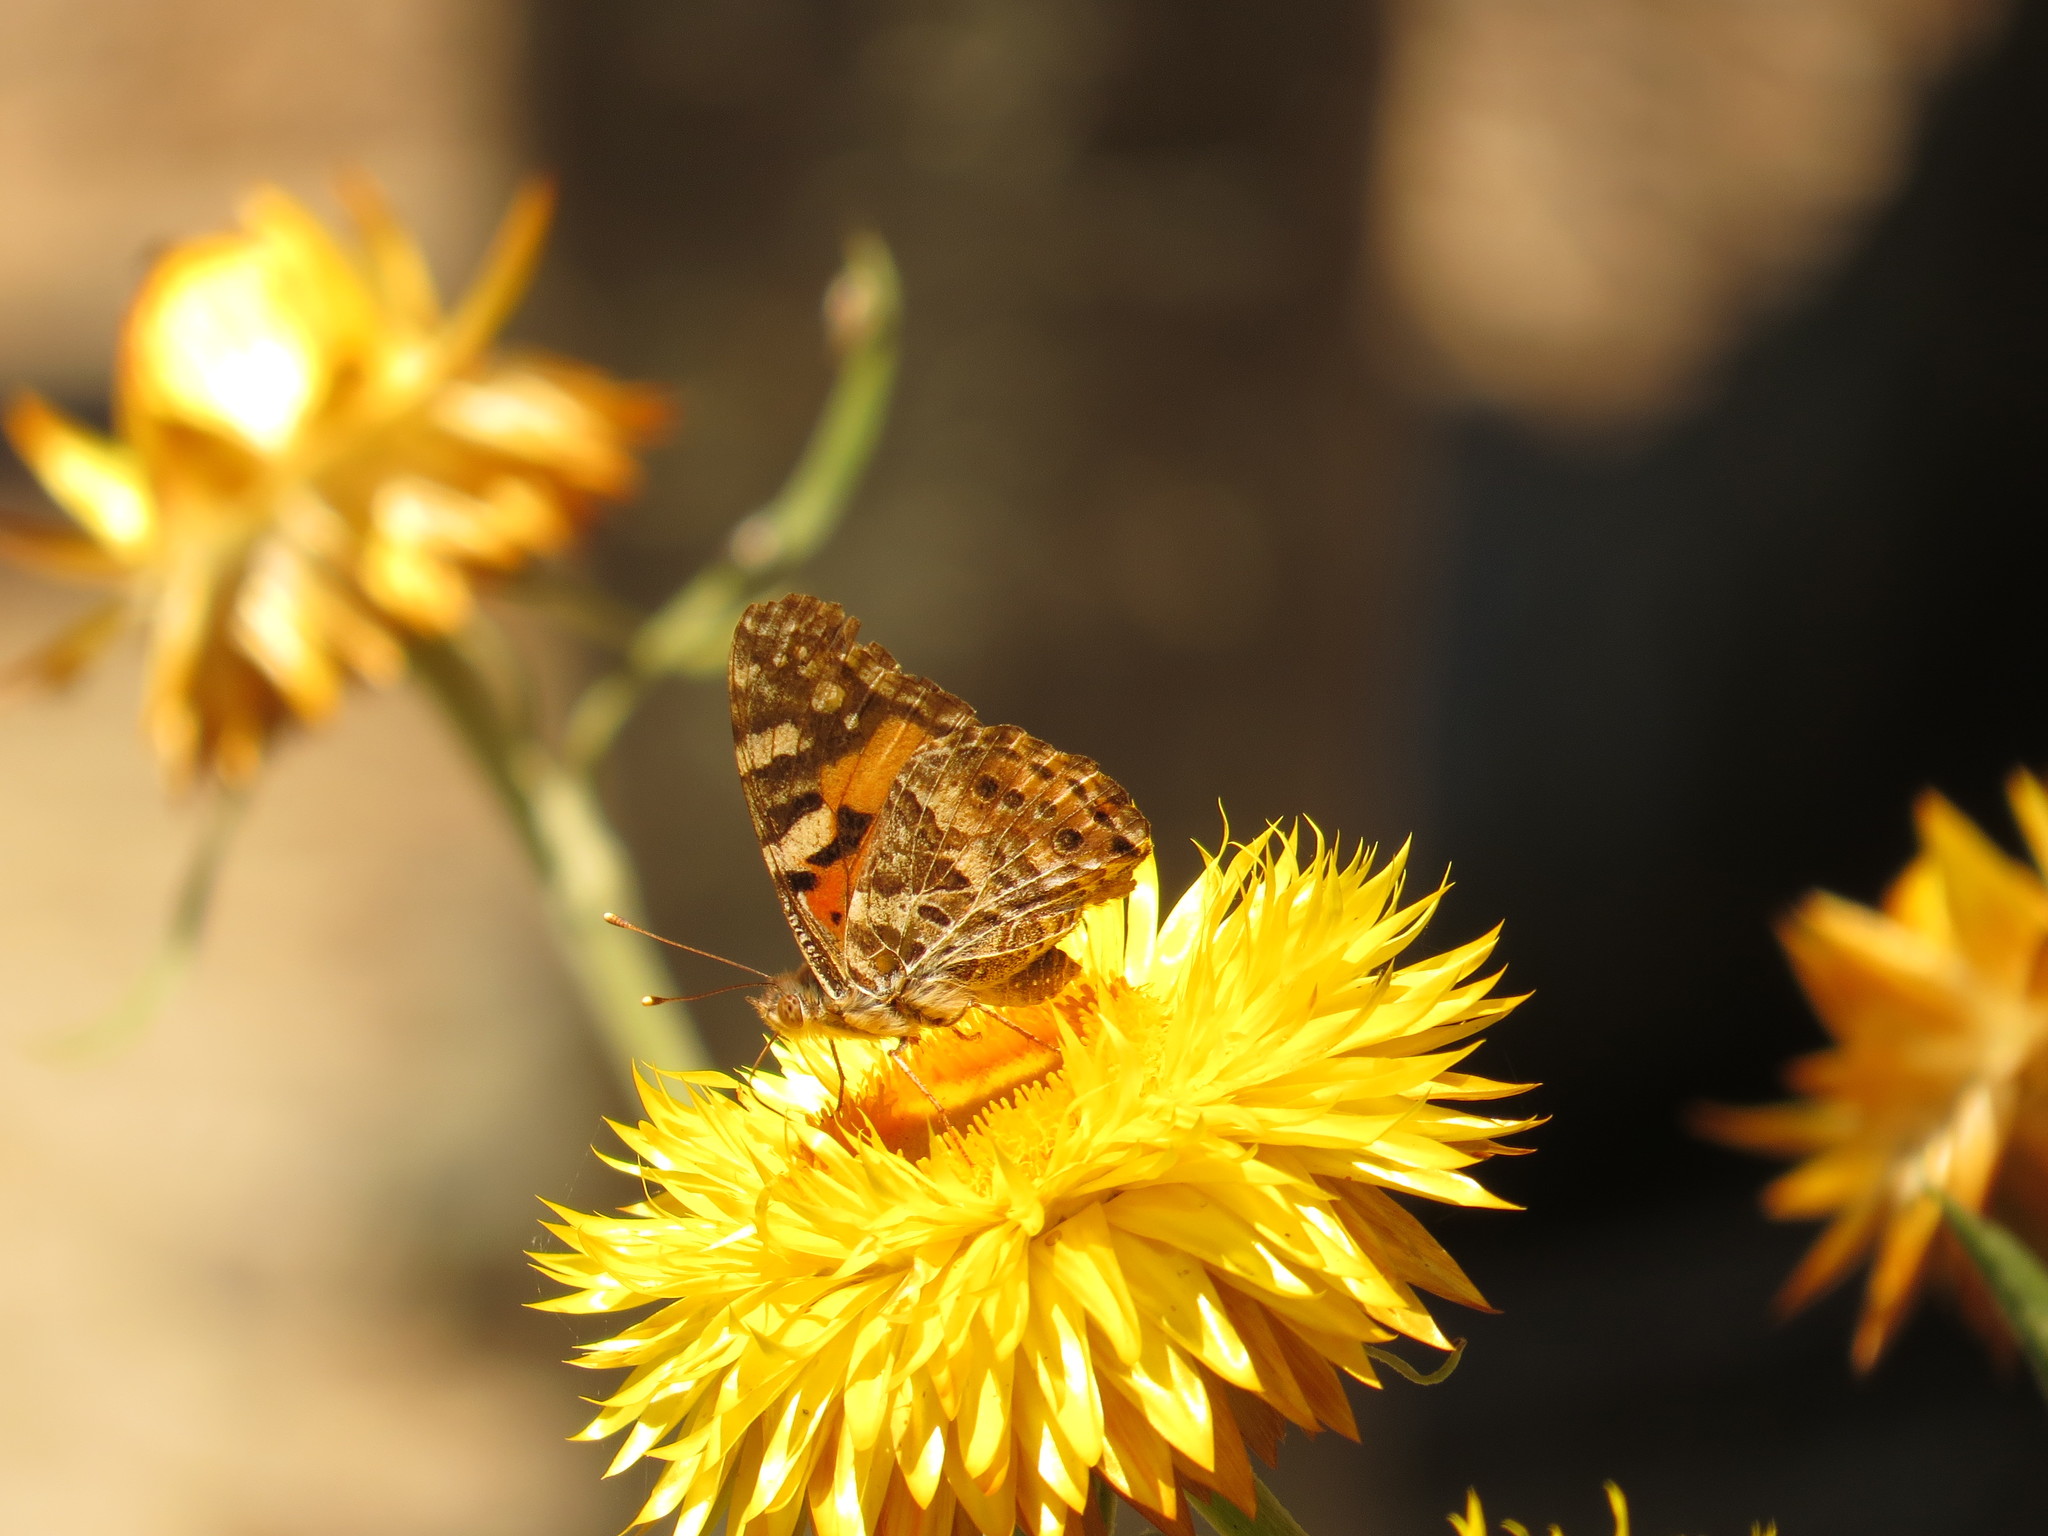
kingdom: Animalia
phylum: Arthropoda
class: Insecta
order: Lepidoptera
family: Nymphalidae
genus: Vanessa
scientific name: Vanessa kershawi
